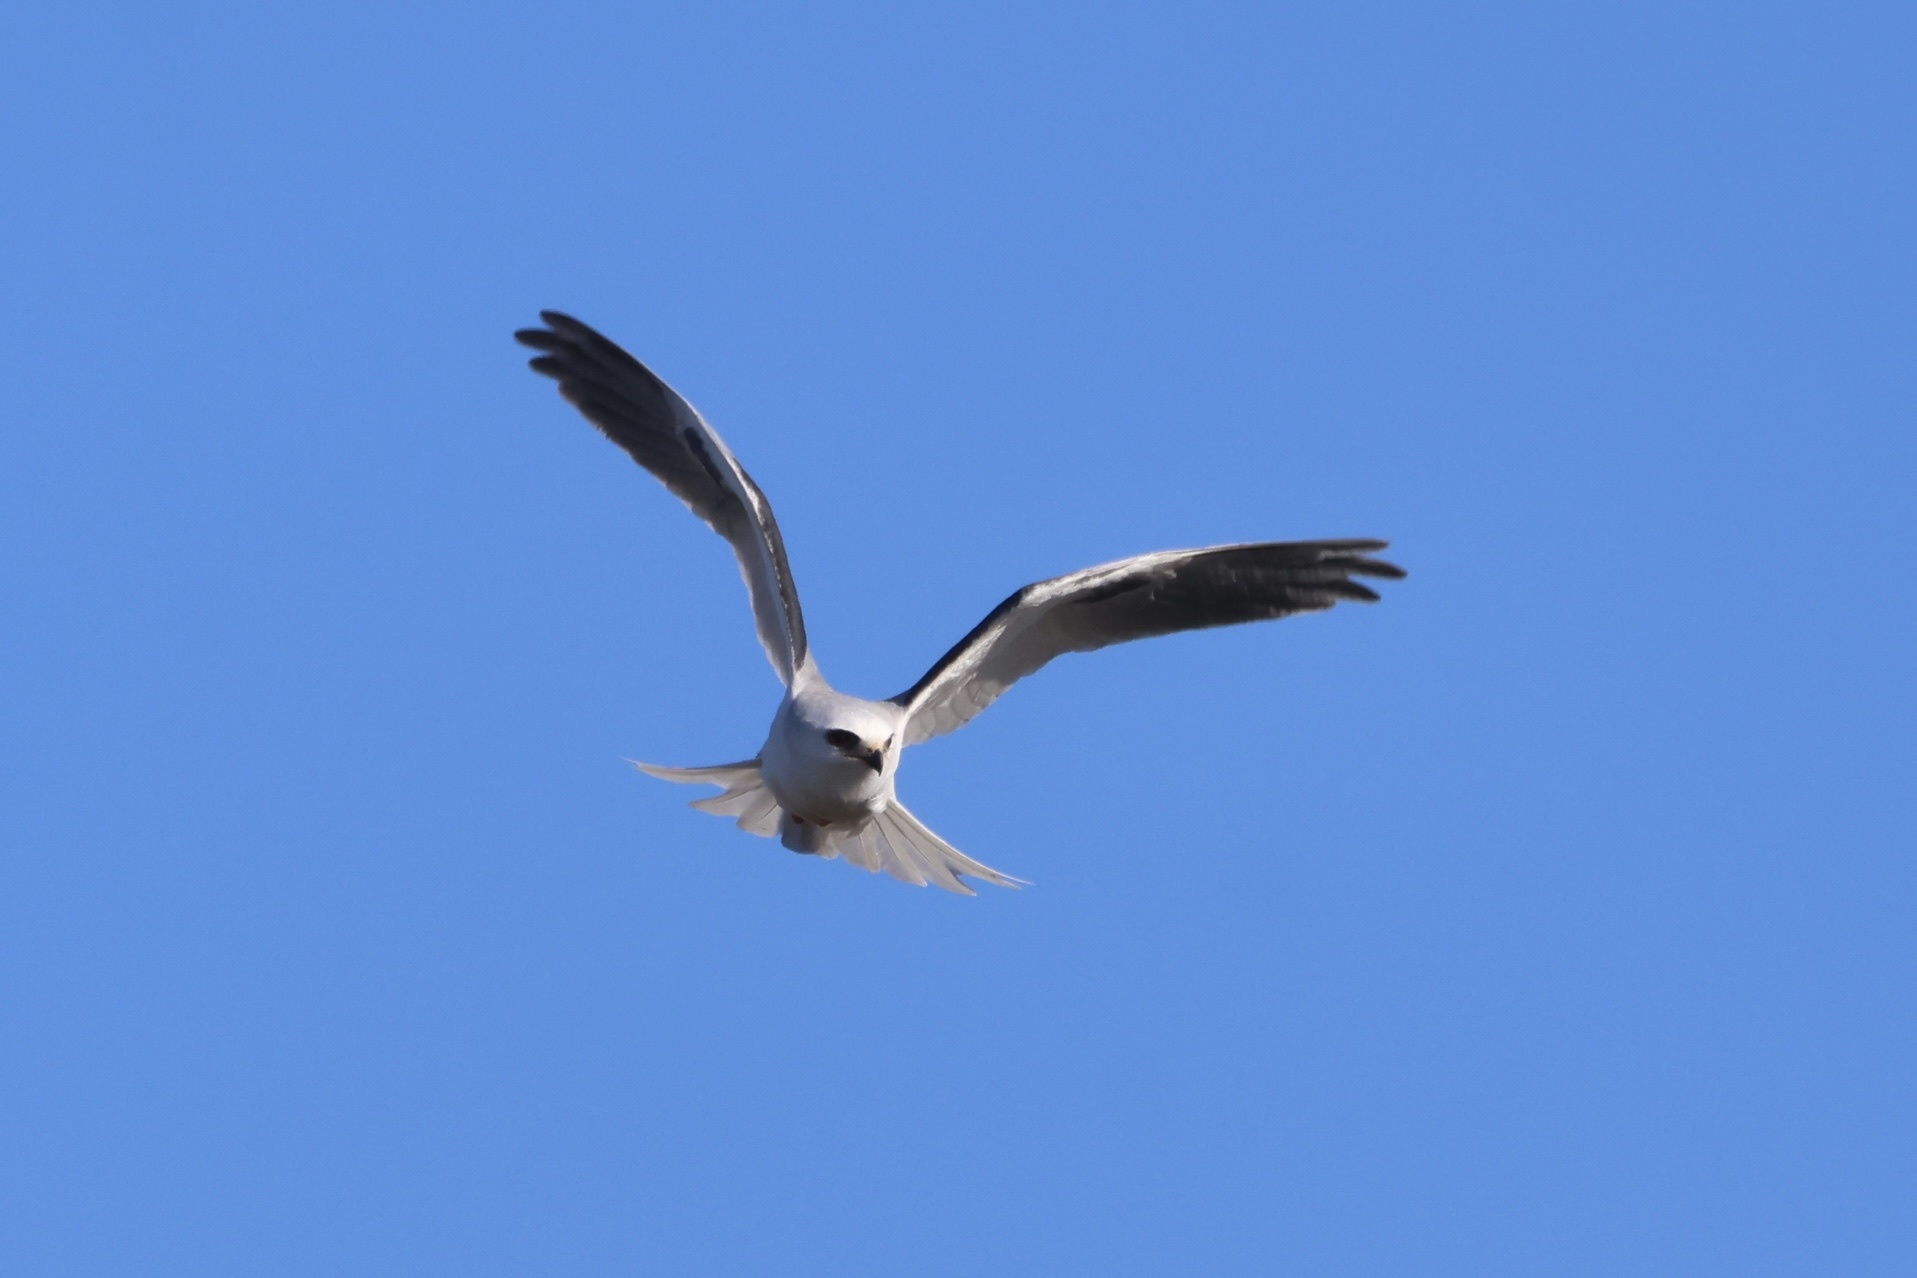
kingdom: Animalia
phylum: Chordata
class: Aves
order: Accipitriformes
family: Accipitridae
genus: Elanus
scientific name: Elanus leucurus
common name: White-tailed kite
